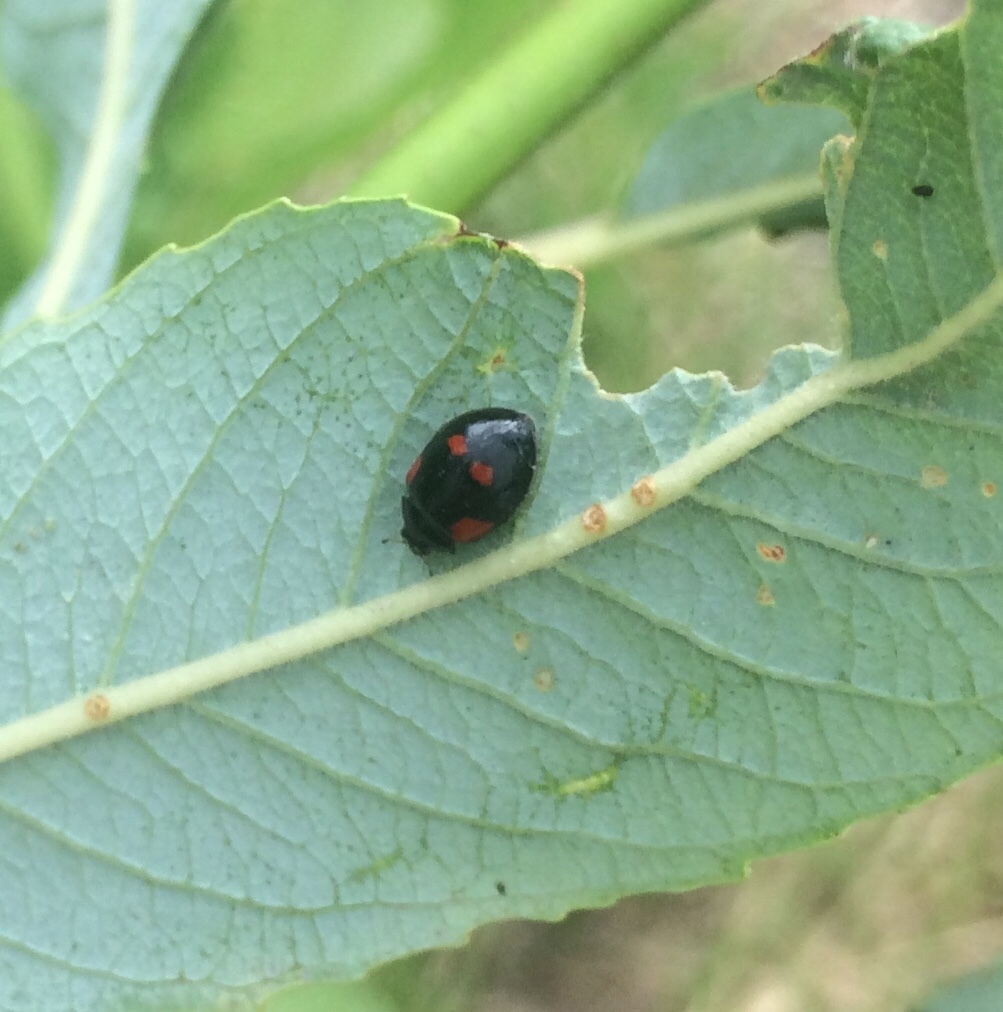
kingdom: Animalia
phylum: Arthropoda
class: Insecta
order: Coleoptera
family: Coccinellidae
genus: Adalia
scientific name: Adalia bipunctata
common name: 2-spot ladybird
